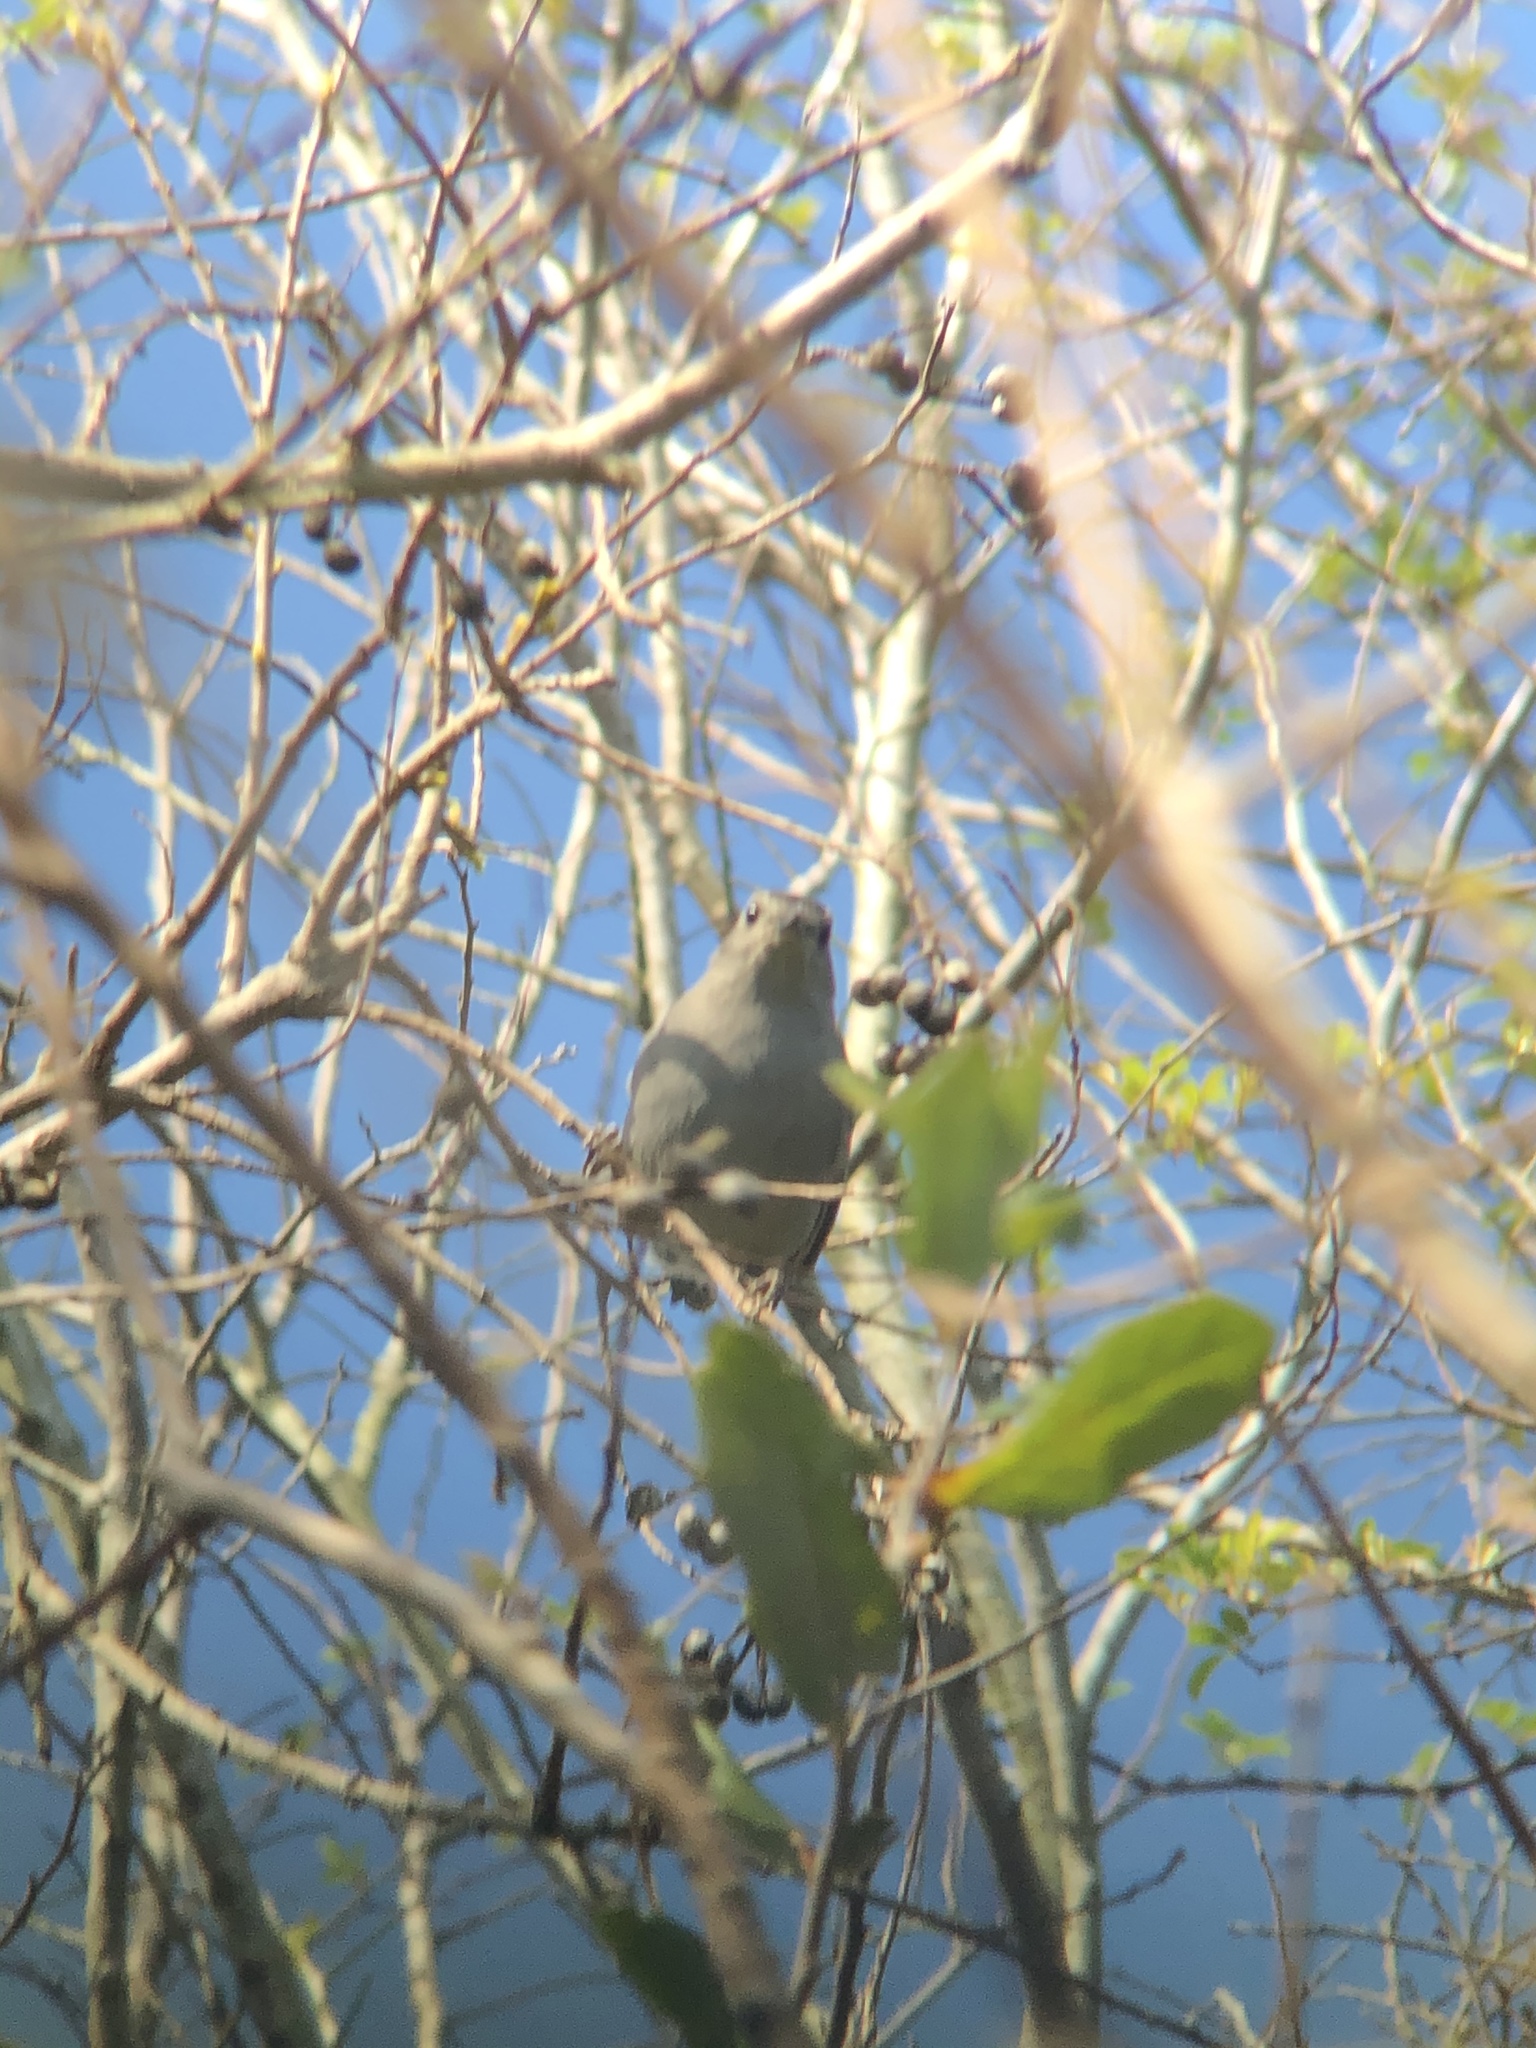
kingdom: Animalia
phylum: Chordata
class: Aves
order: Passeriformes
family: Mimidae
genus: Dumetella
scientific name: Dumetella carolinensis
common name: Gray catbird
